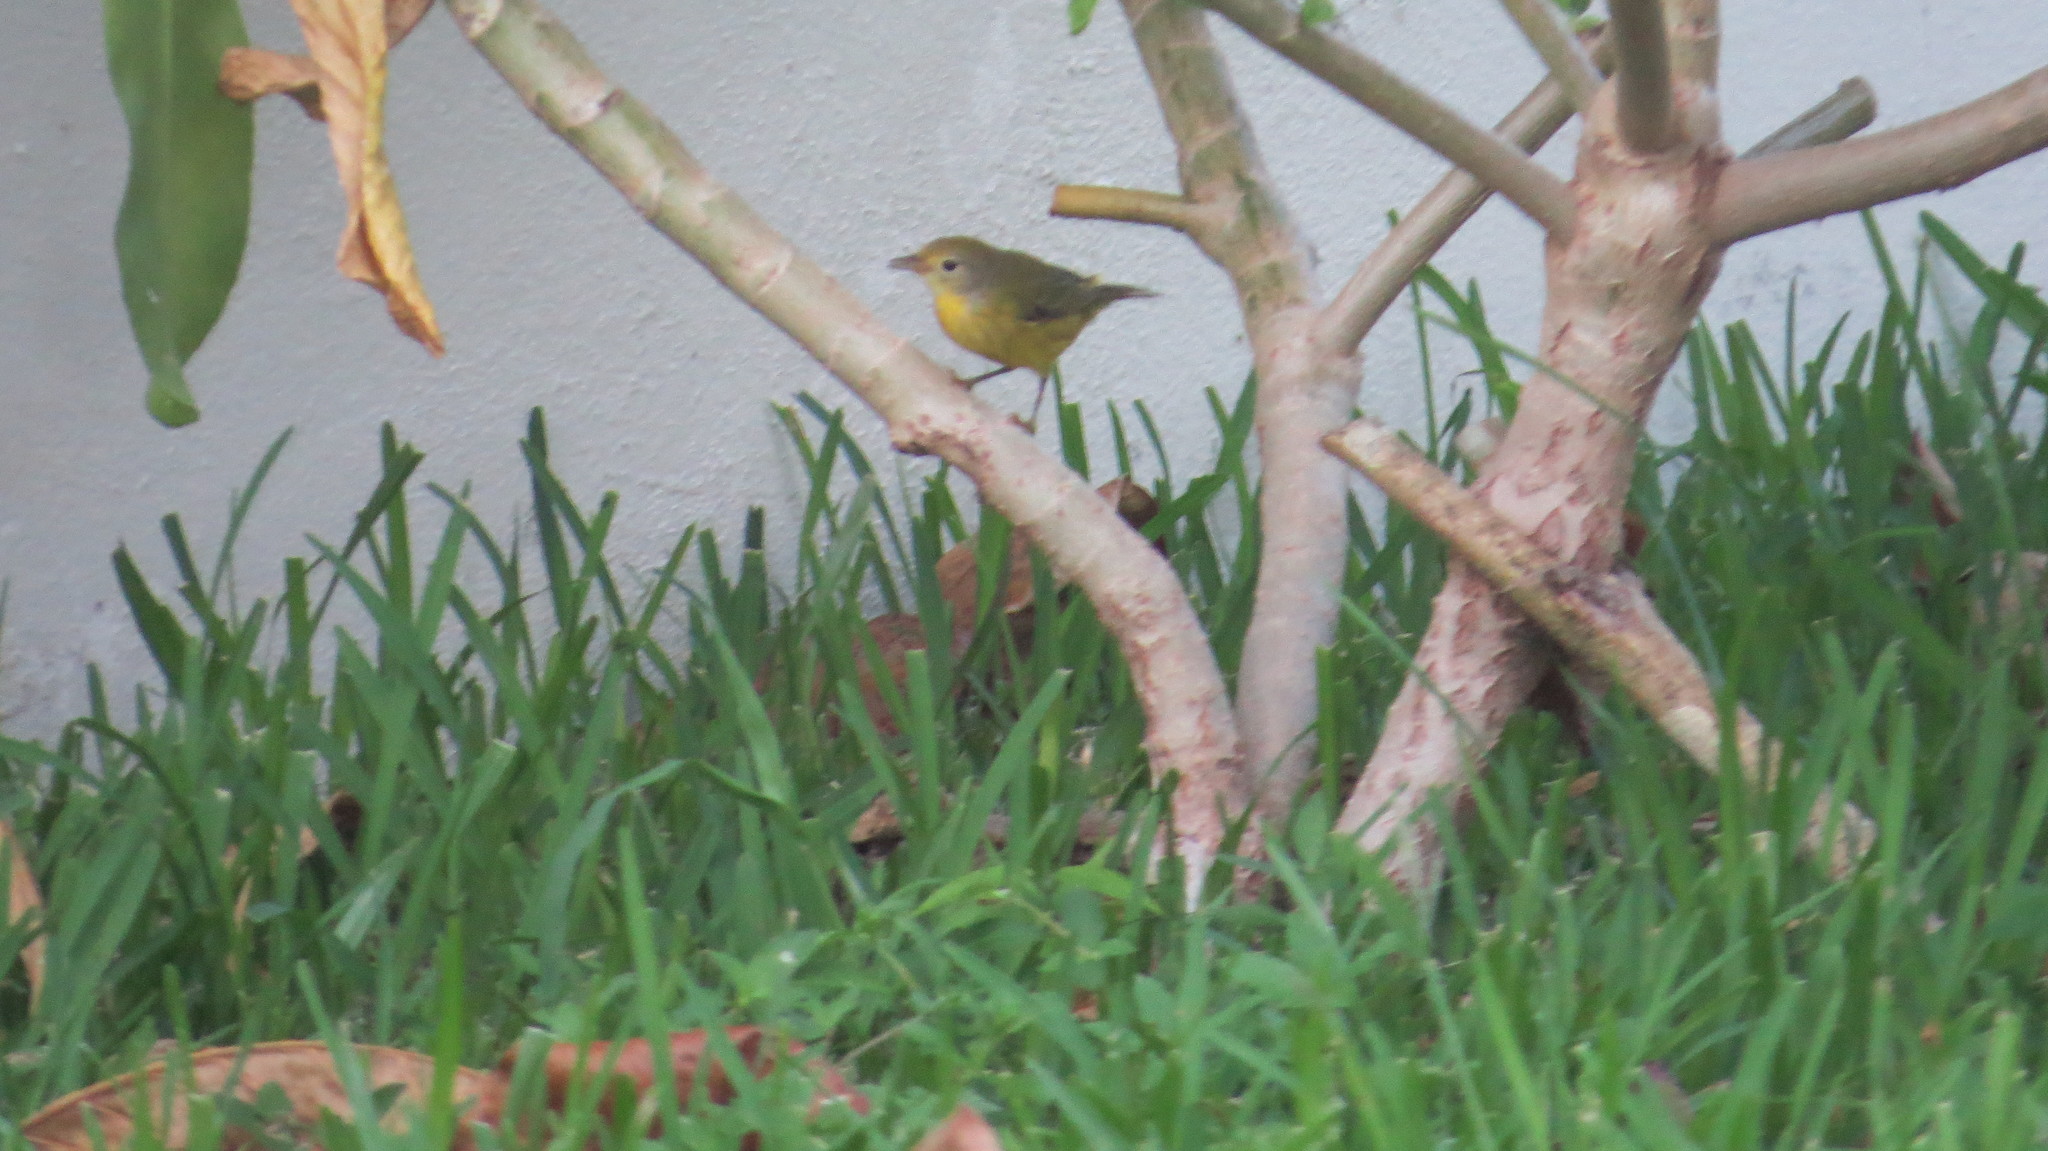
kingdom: Animalia
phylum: Chordata
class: Aves
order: Passeriformes
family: Parulidae
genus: Setophaga
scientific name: Setophaga petechia
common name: Yellow warbler
